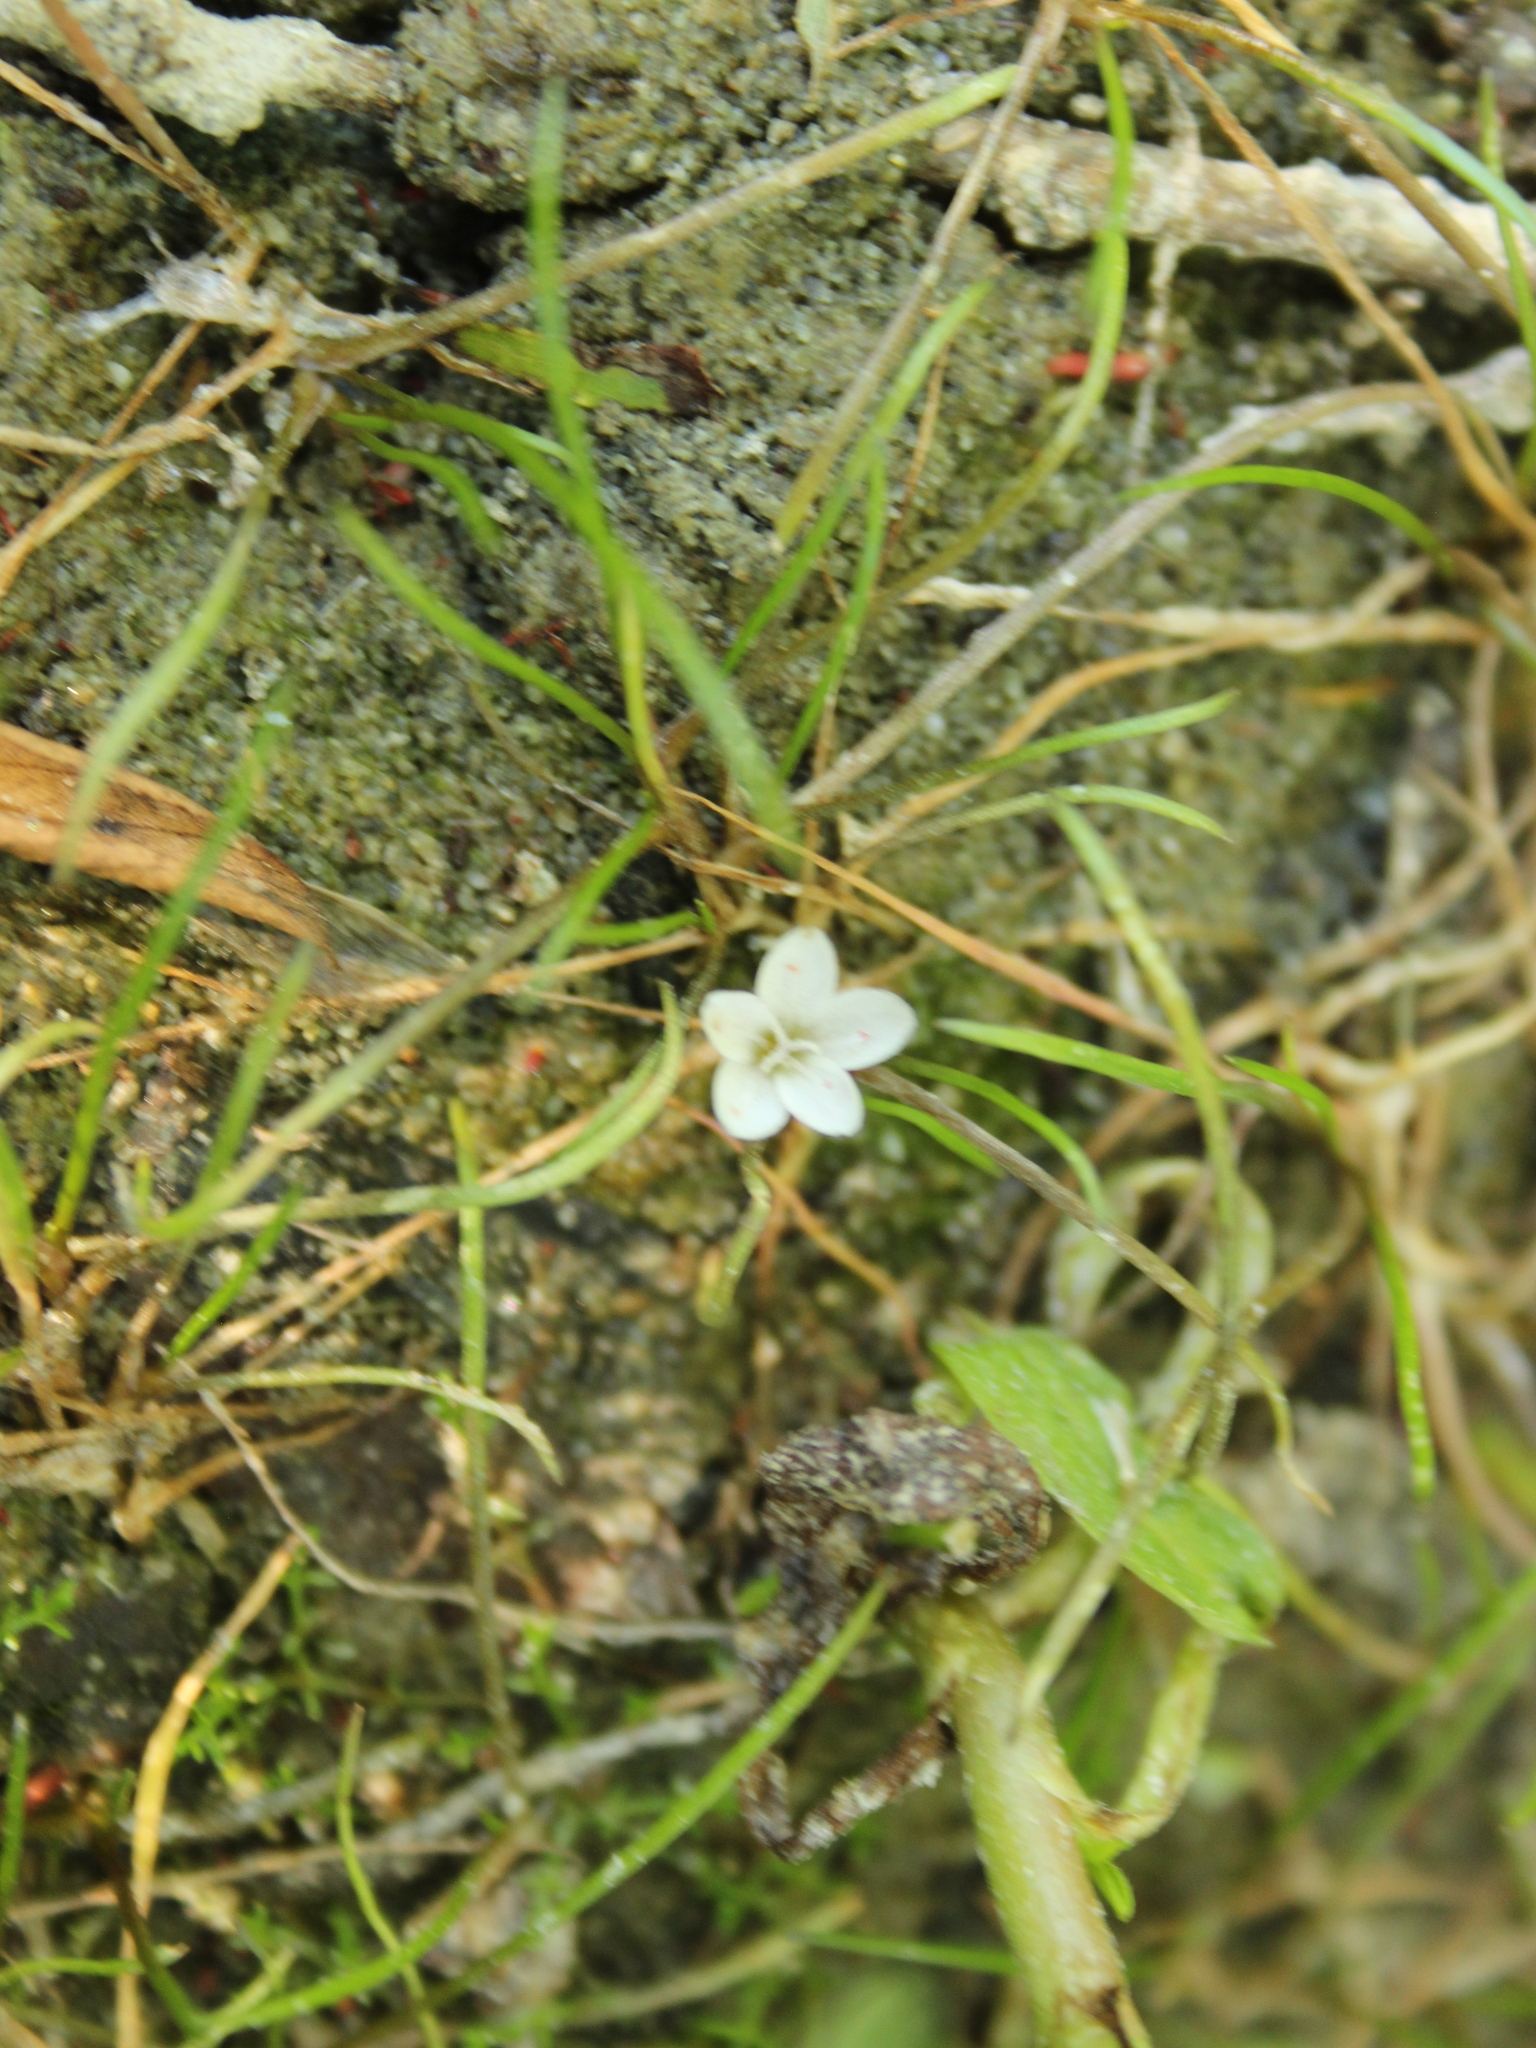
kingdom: Plantae
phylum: Tracheophyta
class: Magnoliopsida
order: Caryophyllales
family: Montiaceae
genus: Montia
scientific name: Montia angustifolia
